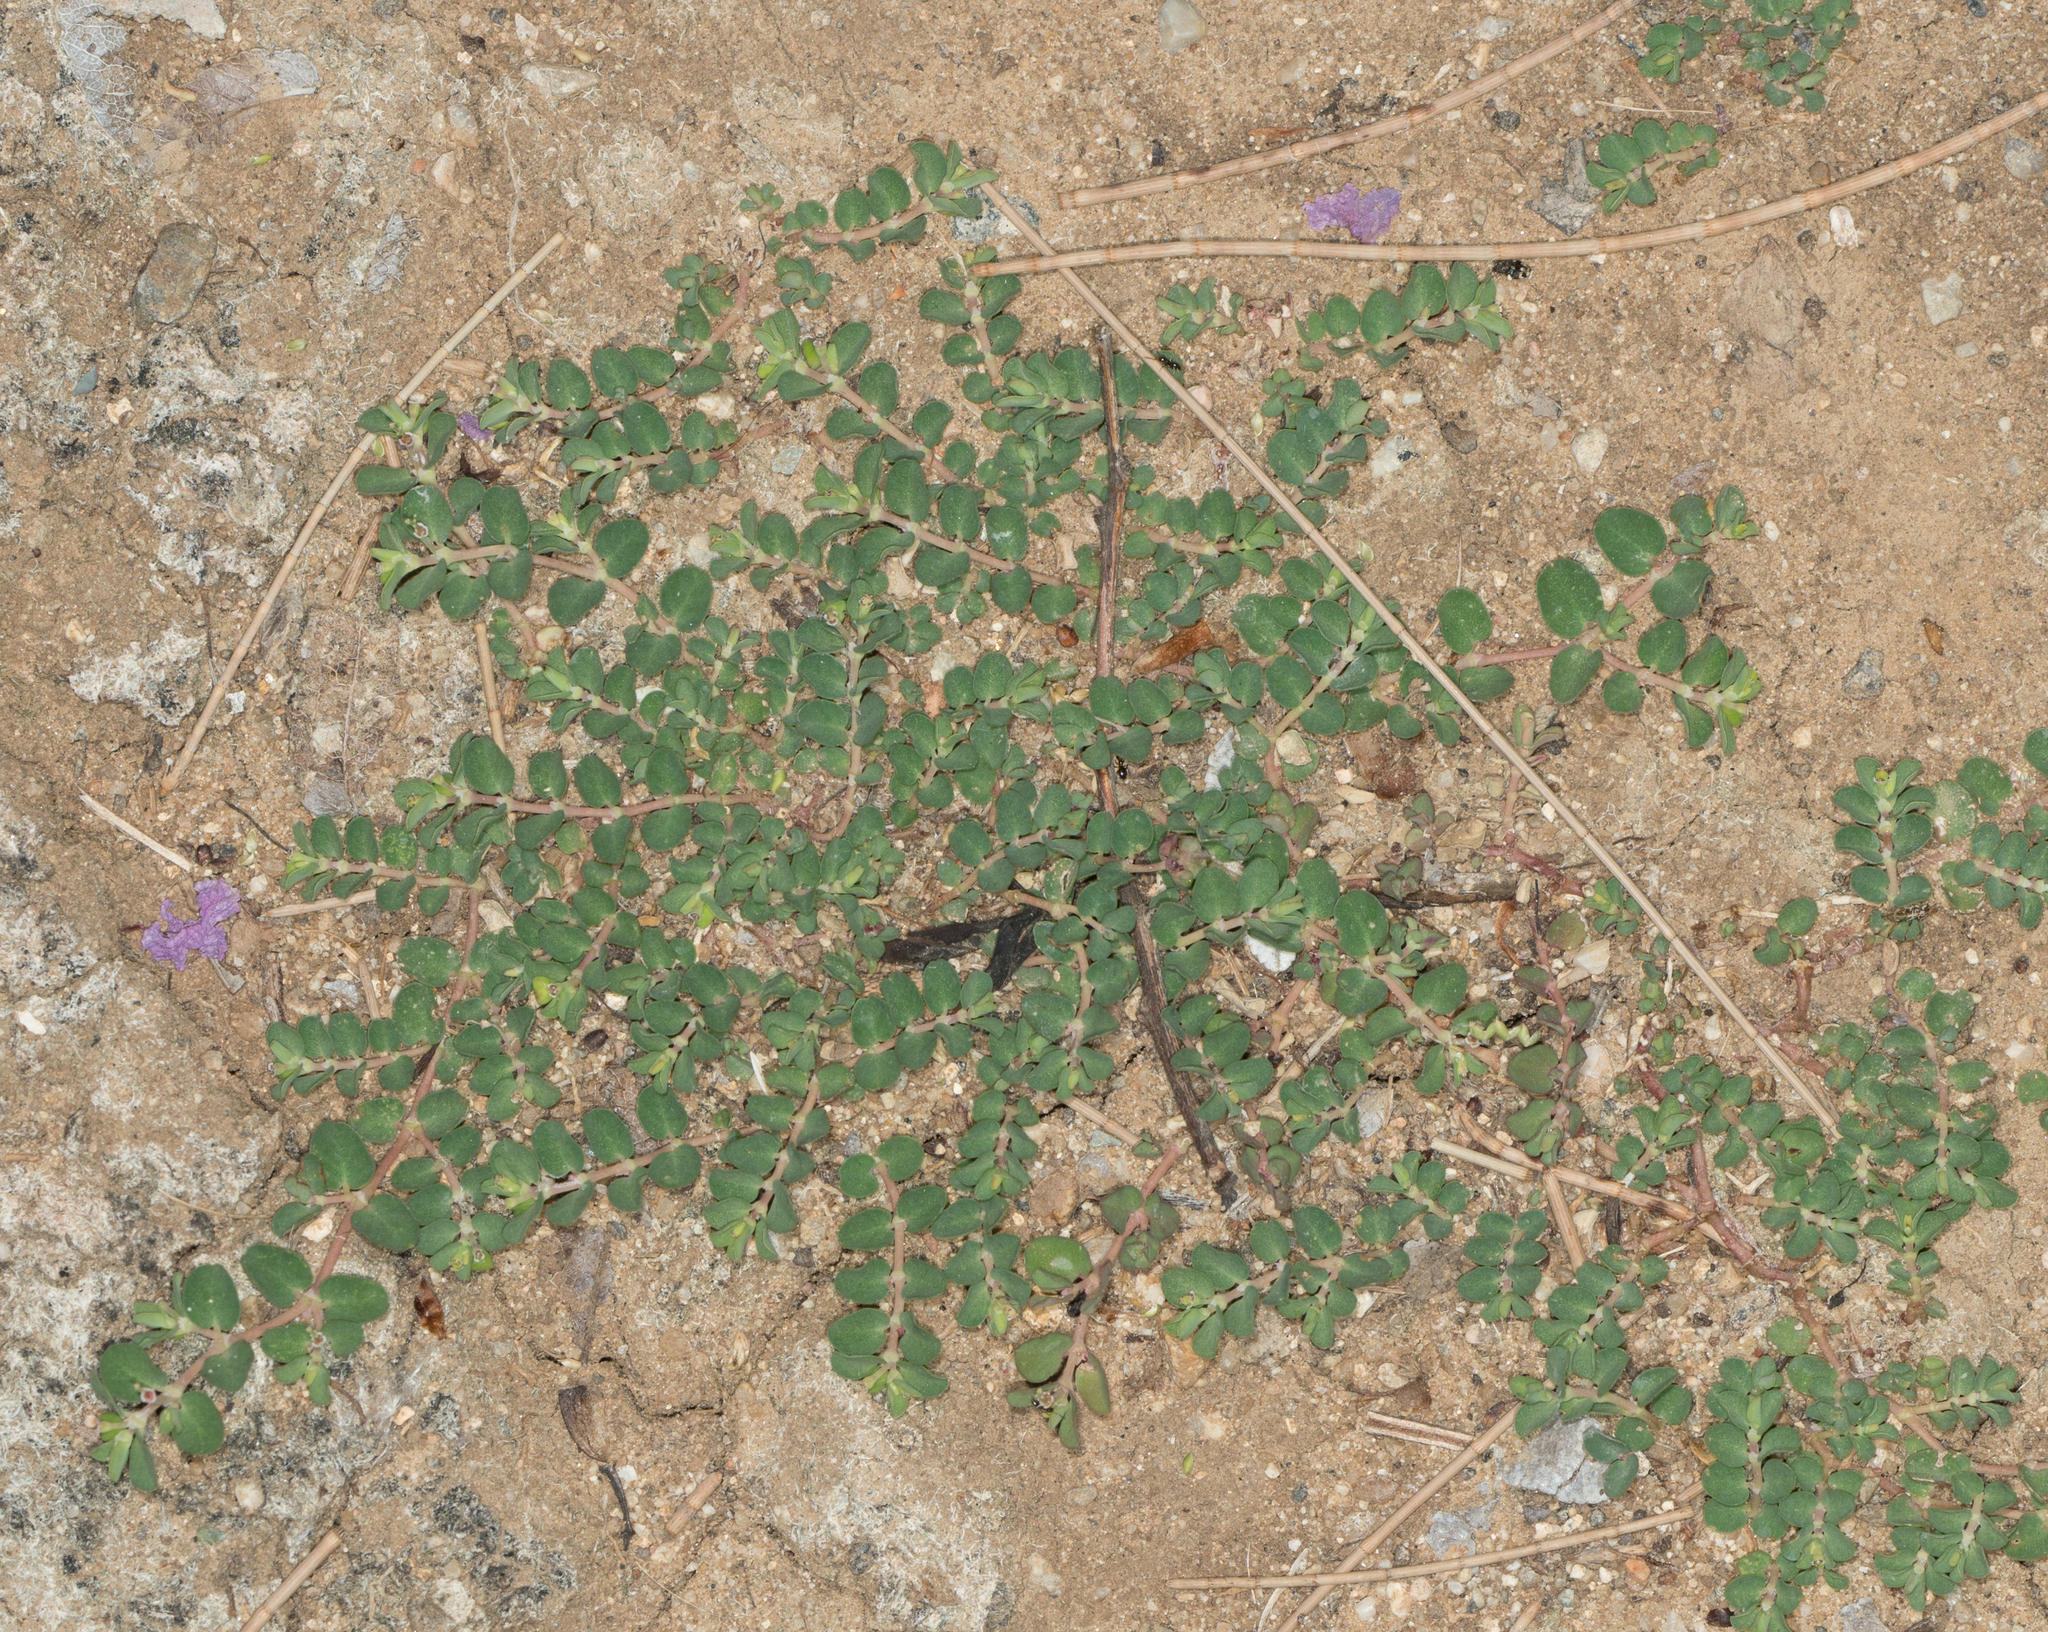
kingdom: Plantae
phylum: Tracheophyta
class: Magnoliopsida
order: Malpighiales
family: Euphorbiaceae
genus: Euphorbia
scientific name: Euphorbia serpens
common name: Matted sandmat
